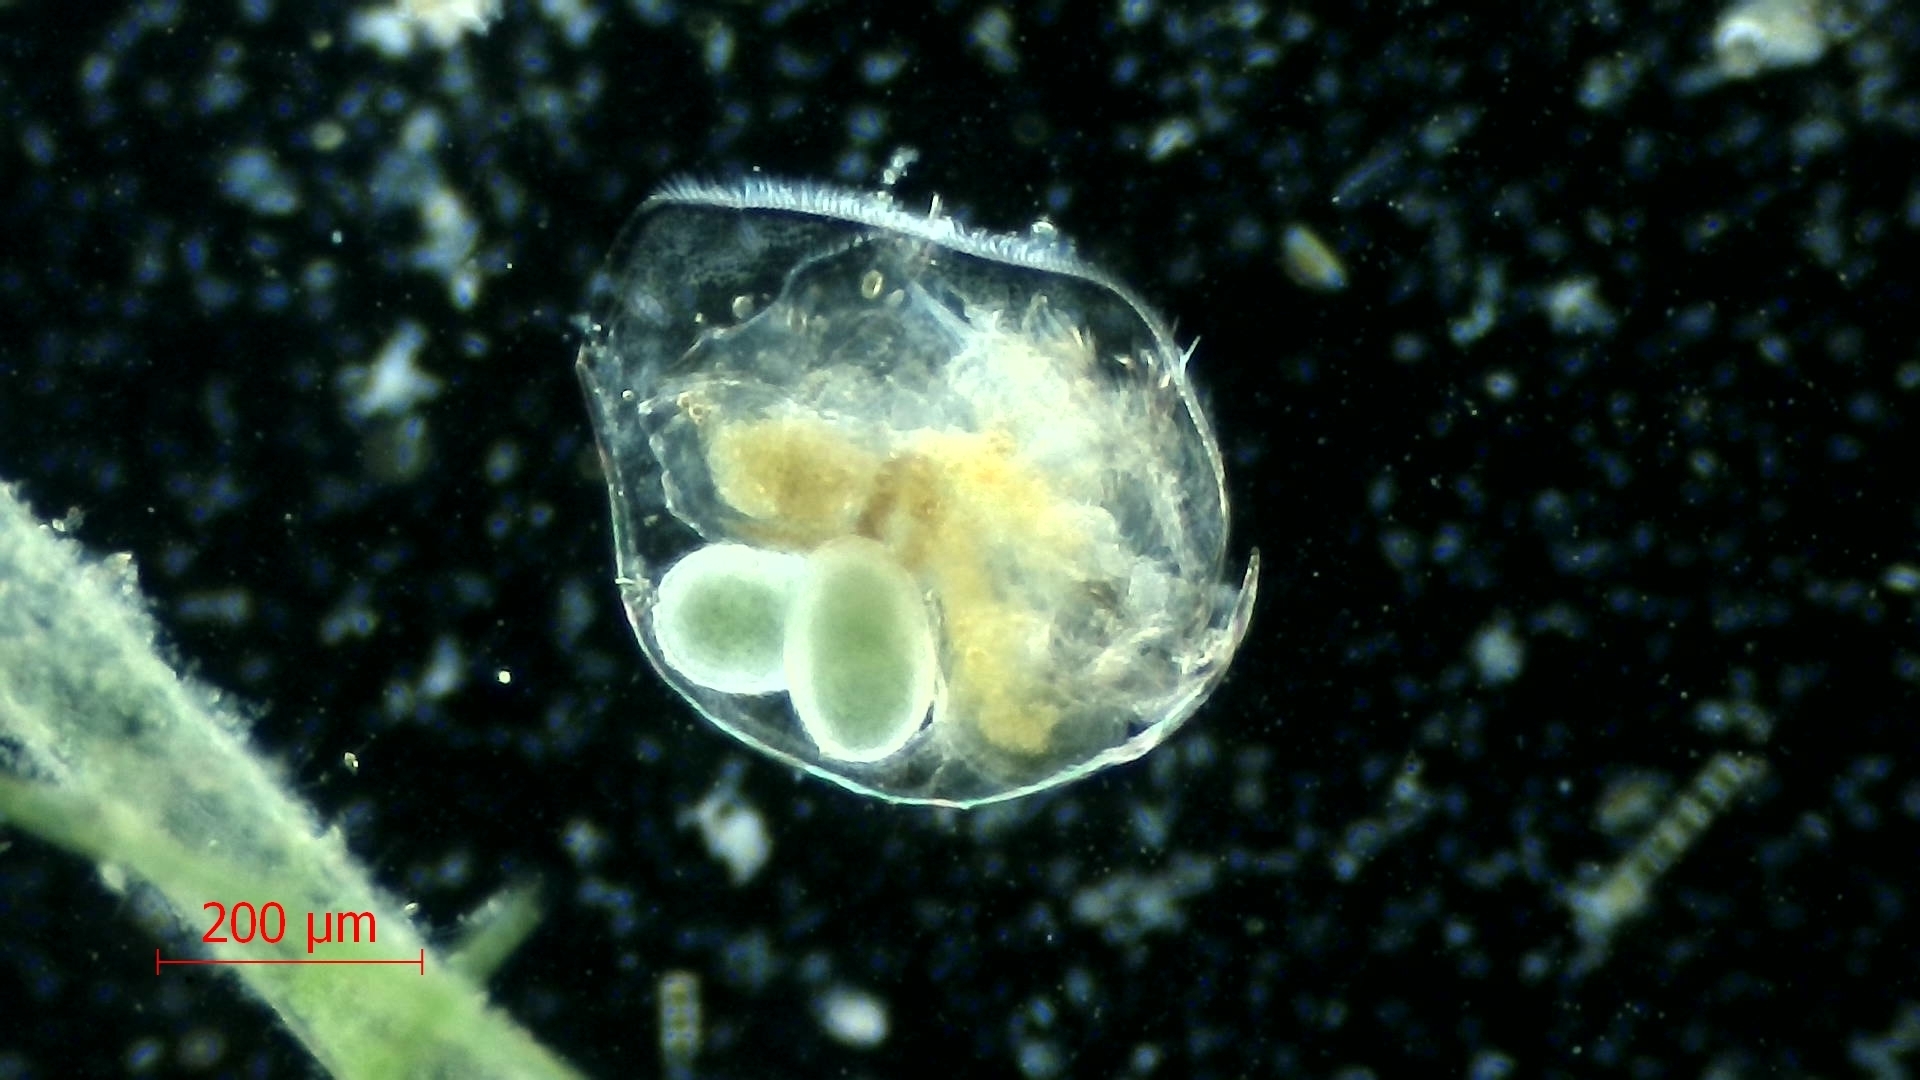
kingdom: Animalia
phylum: Arthropoda
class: Branchiopoda
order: Diplostraca
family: Chydoridae
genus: Pleuroxus
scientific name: Pleuroxus aduncus
